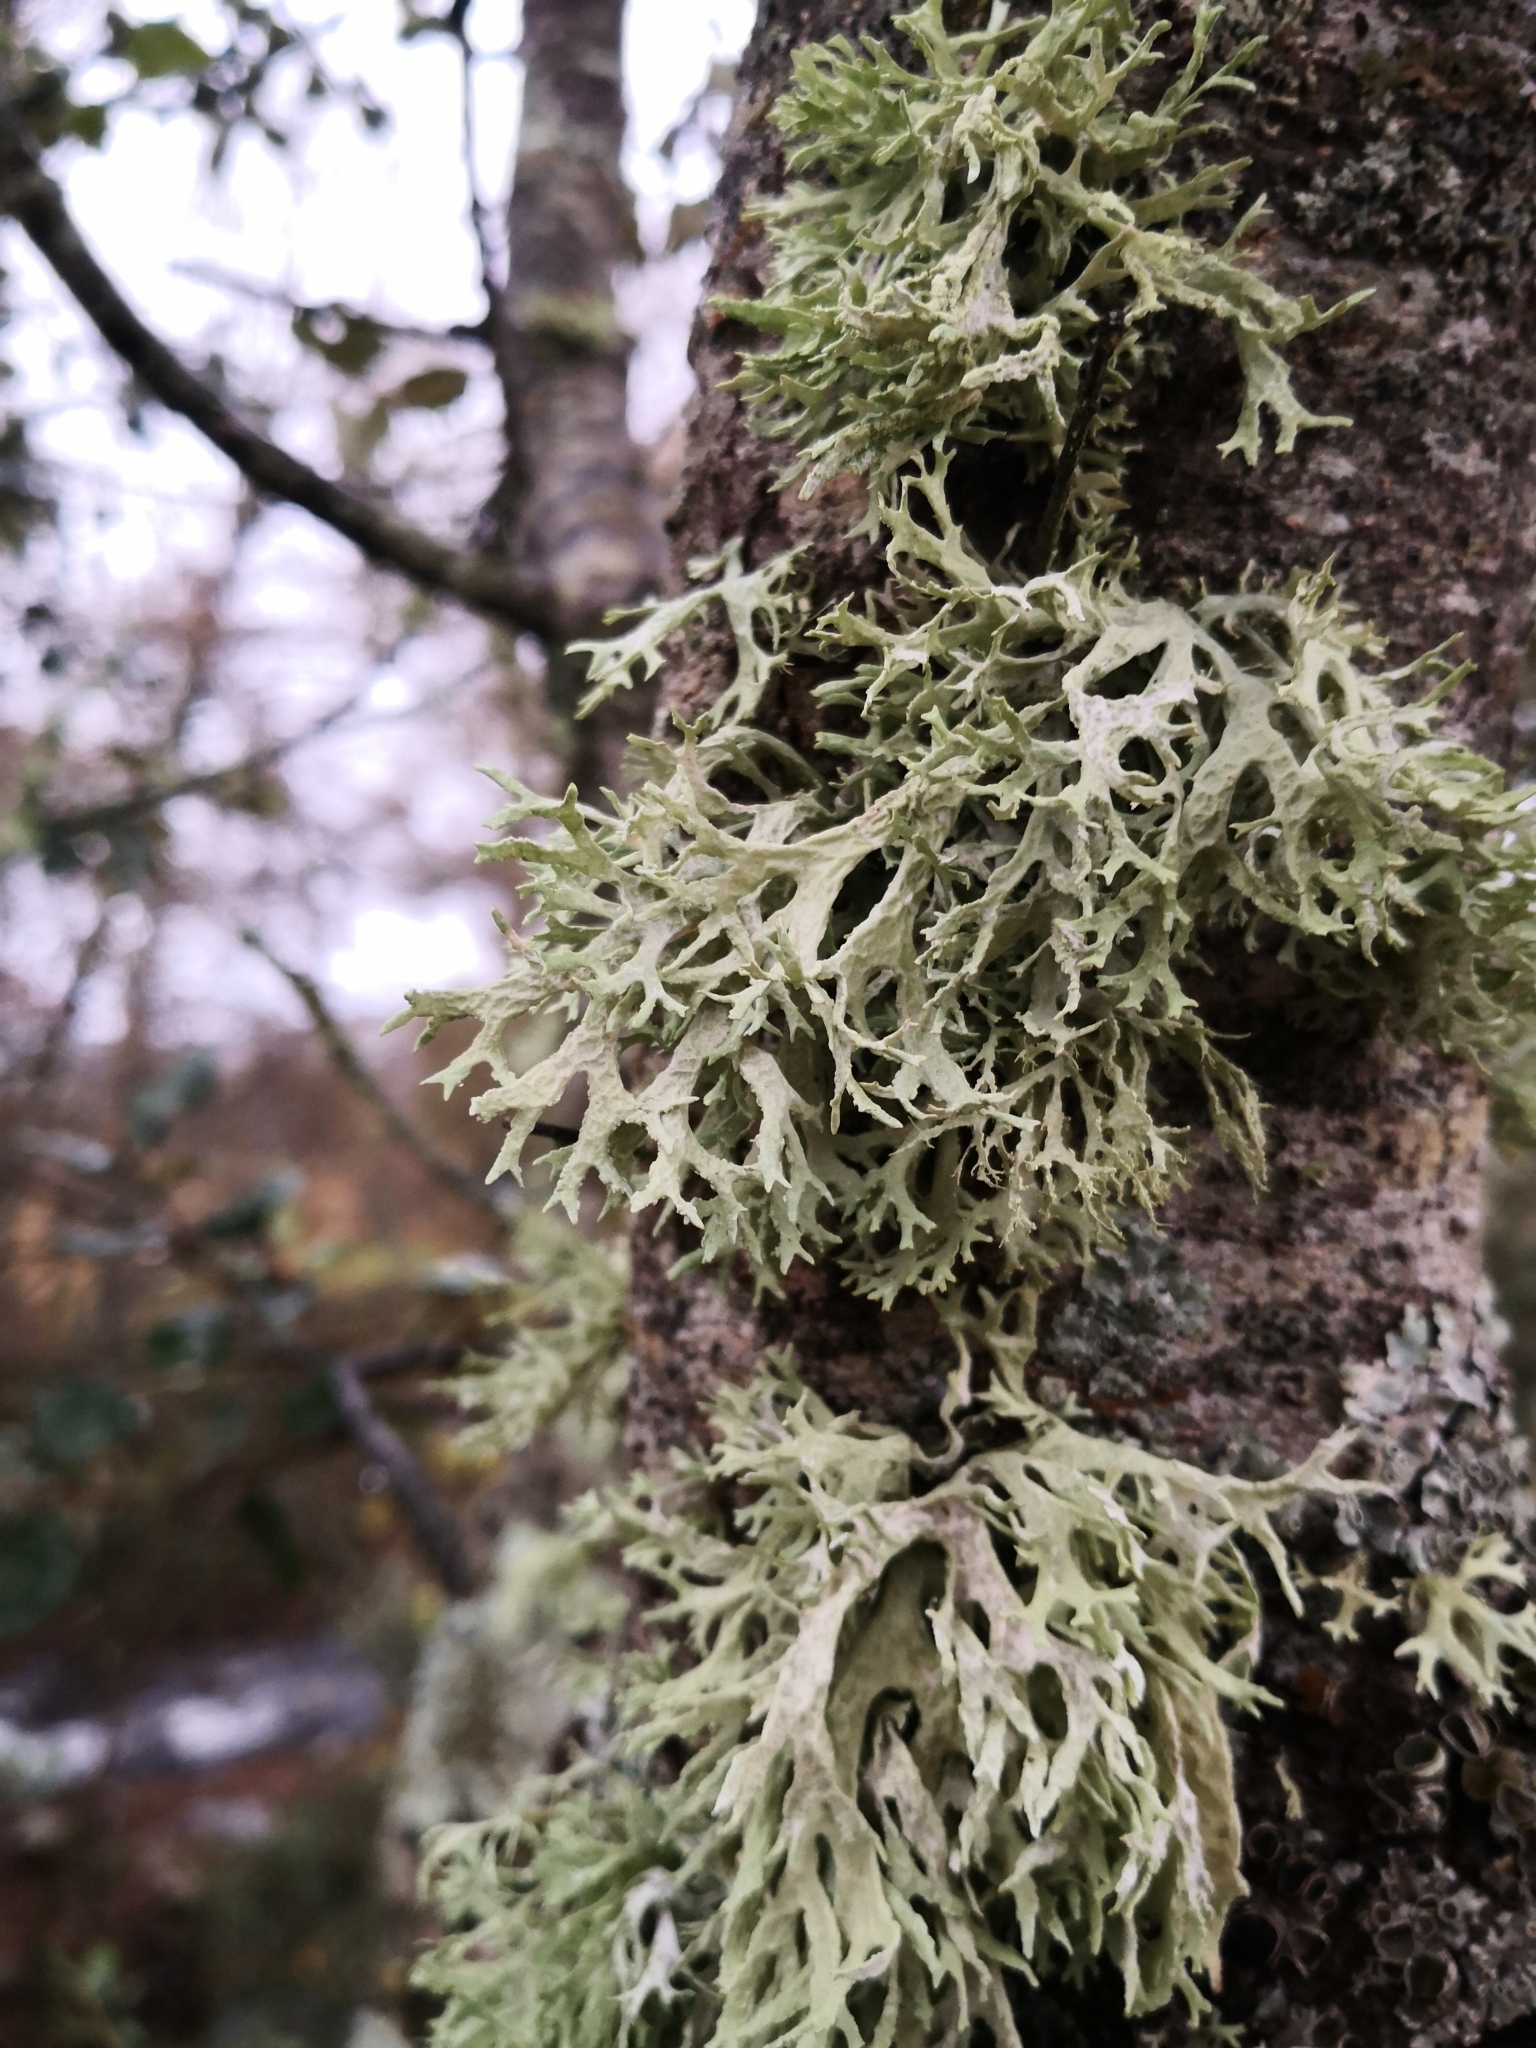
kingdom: Fungi
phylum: Ascomycota
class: Lecanoromycetes
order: Lecanorales
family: Parmeliaceae
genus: Evernia
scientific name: Evernia prunastri
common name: Oak moss
